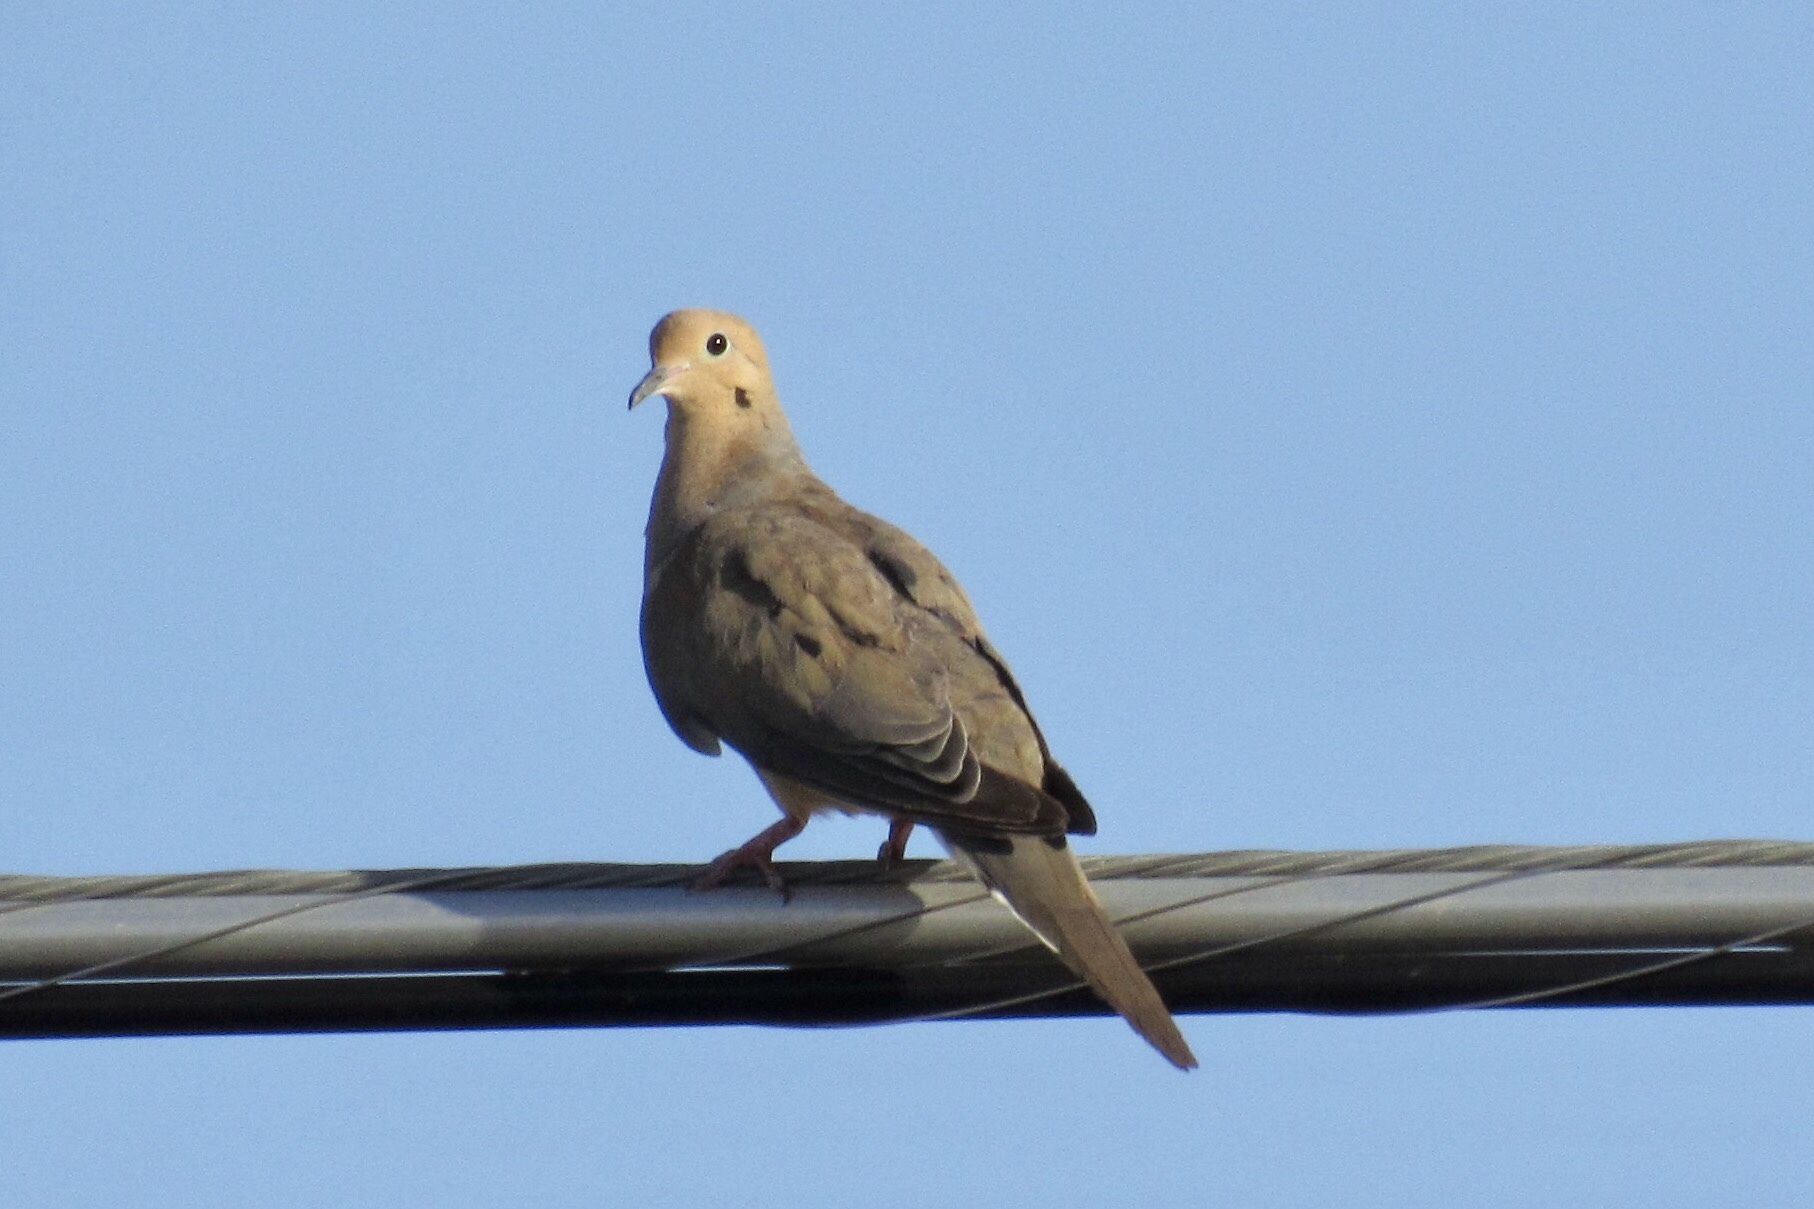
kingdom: Animalia
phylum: Chordata
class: Aves
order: Columbiformes
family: Columbidae
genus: Zenaida
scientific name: Zenaida macroura
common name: Mourning dove
